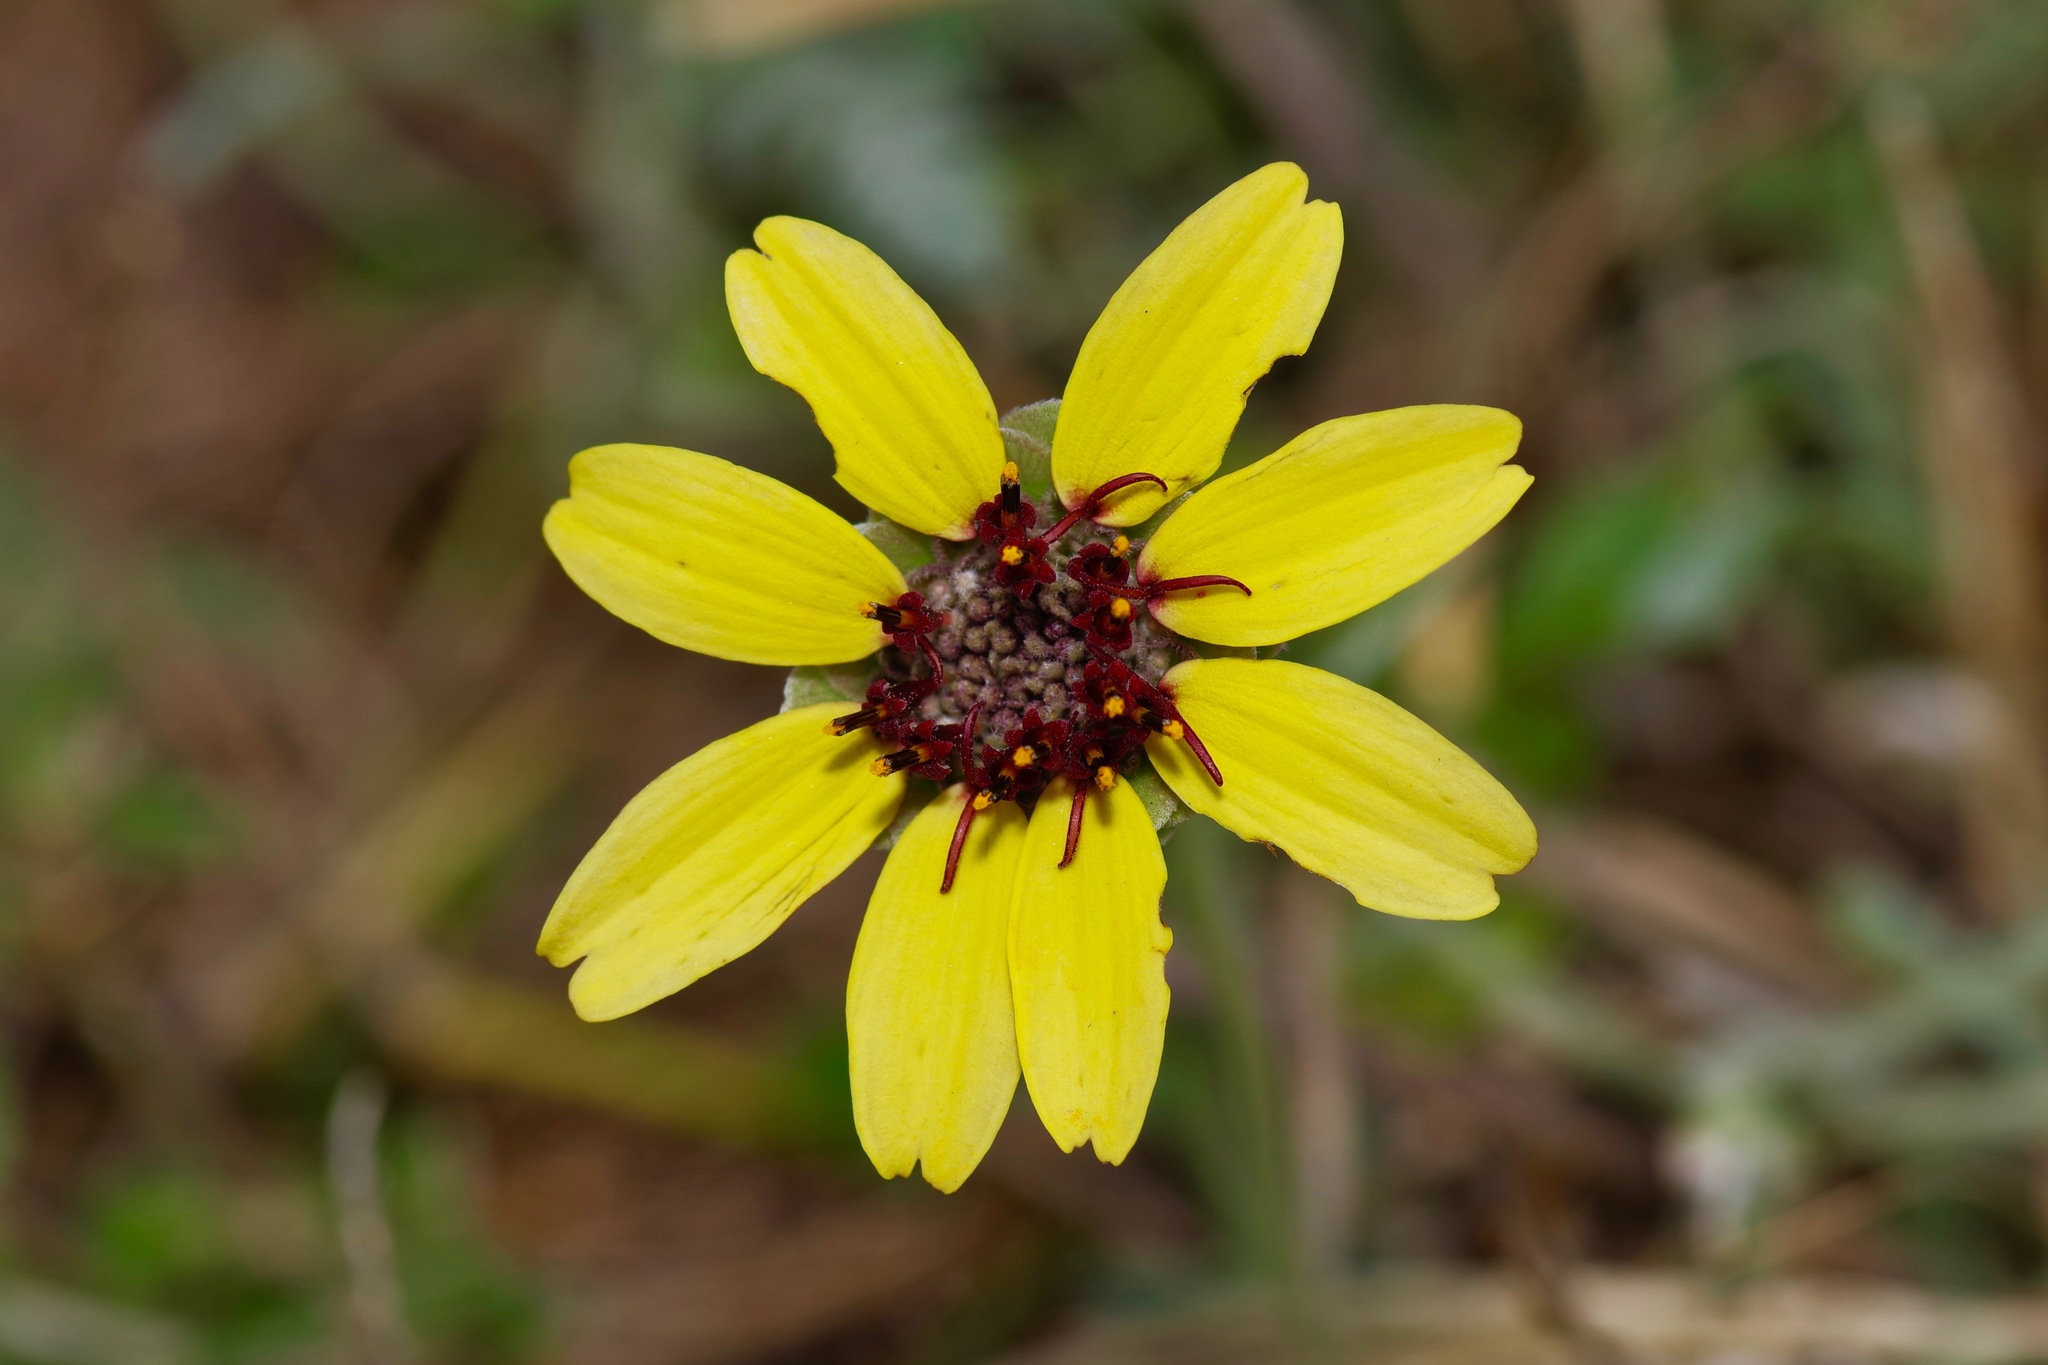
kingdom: Plantae
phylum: Tracheophyta
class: Magnoliopsida
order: Asterales
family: Asteraceae
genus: Berlandiera
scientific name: Berlandiera lyrata
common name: Chocolate-flower
